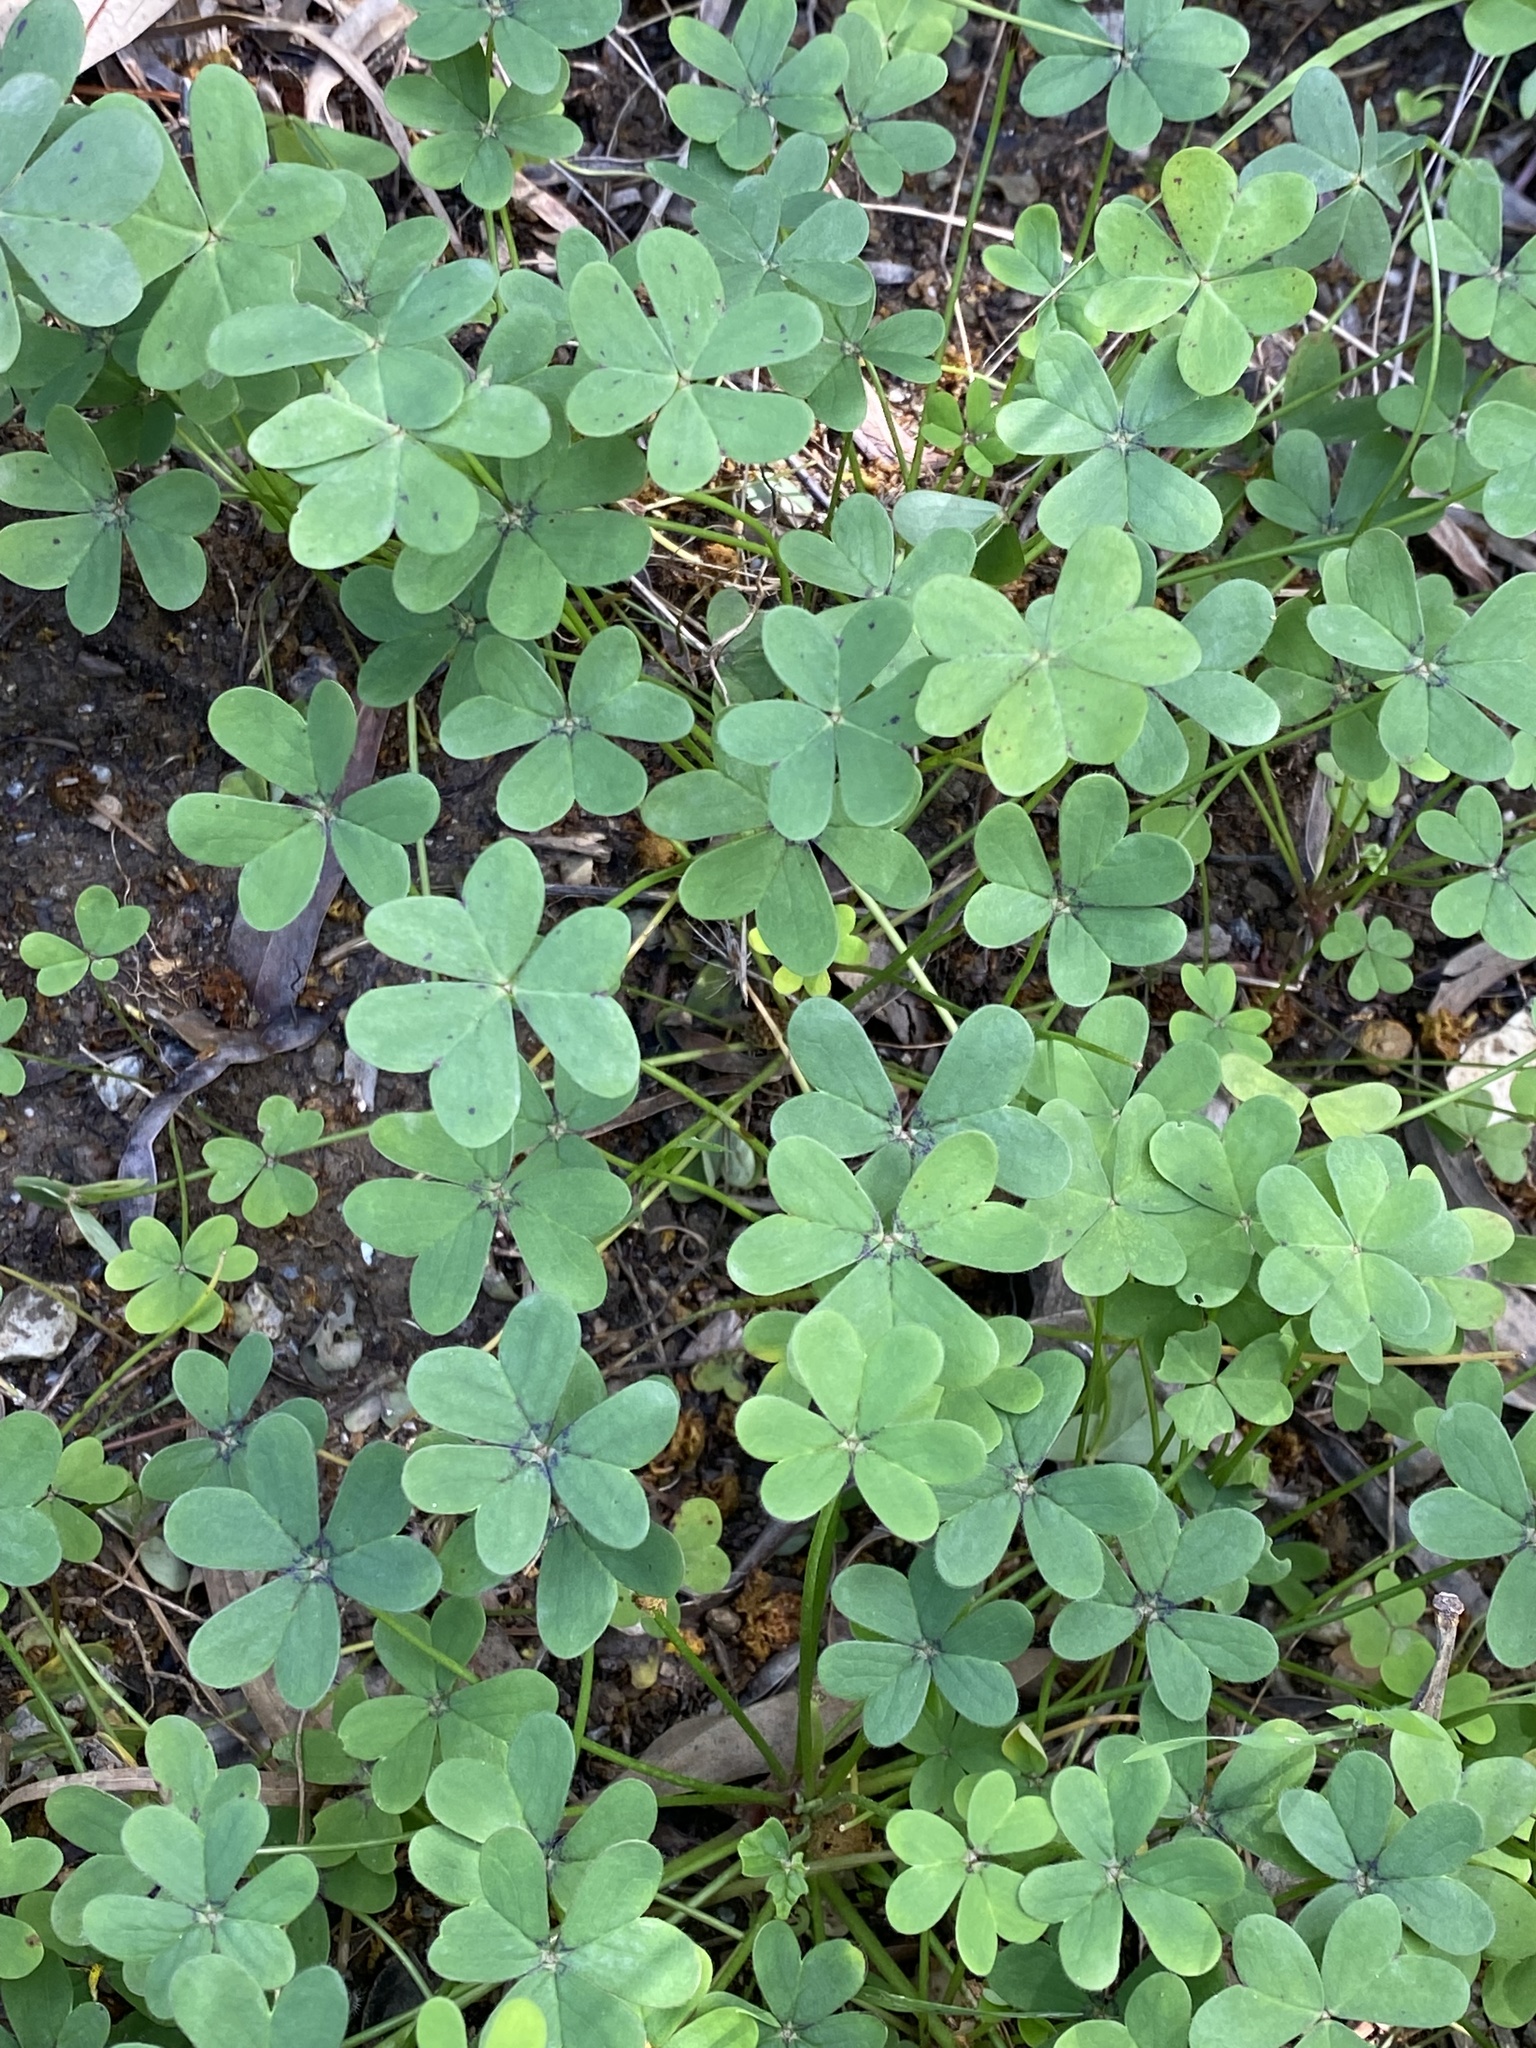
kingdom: Plantae
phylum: Tracheophyta
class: Magnoliopsida
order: Oxalidales
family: Oxalidaceae
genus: Oxalis
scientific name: Oxalis pes-caprae
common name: Bermuda-buttercup
